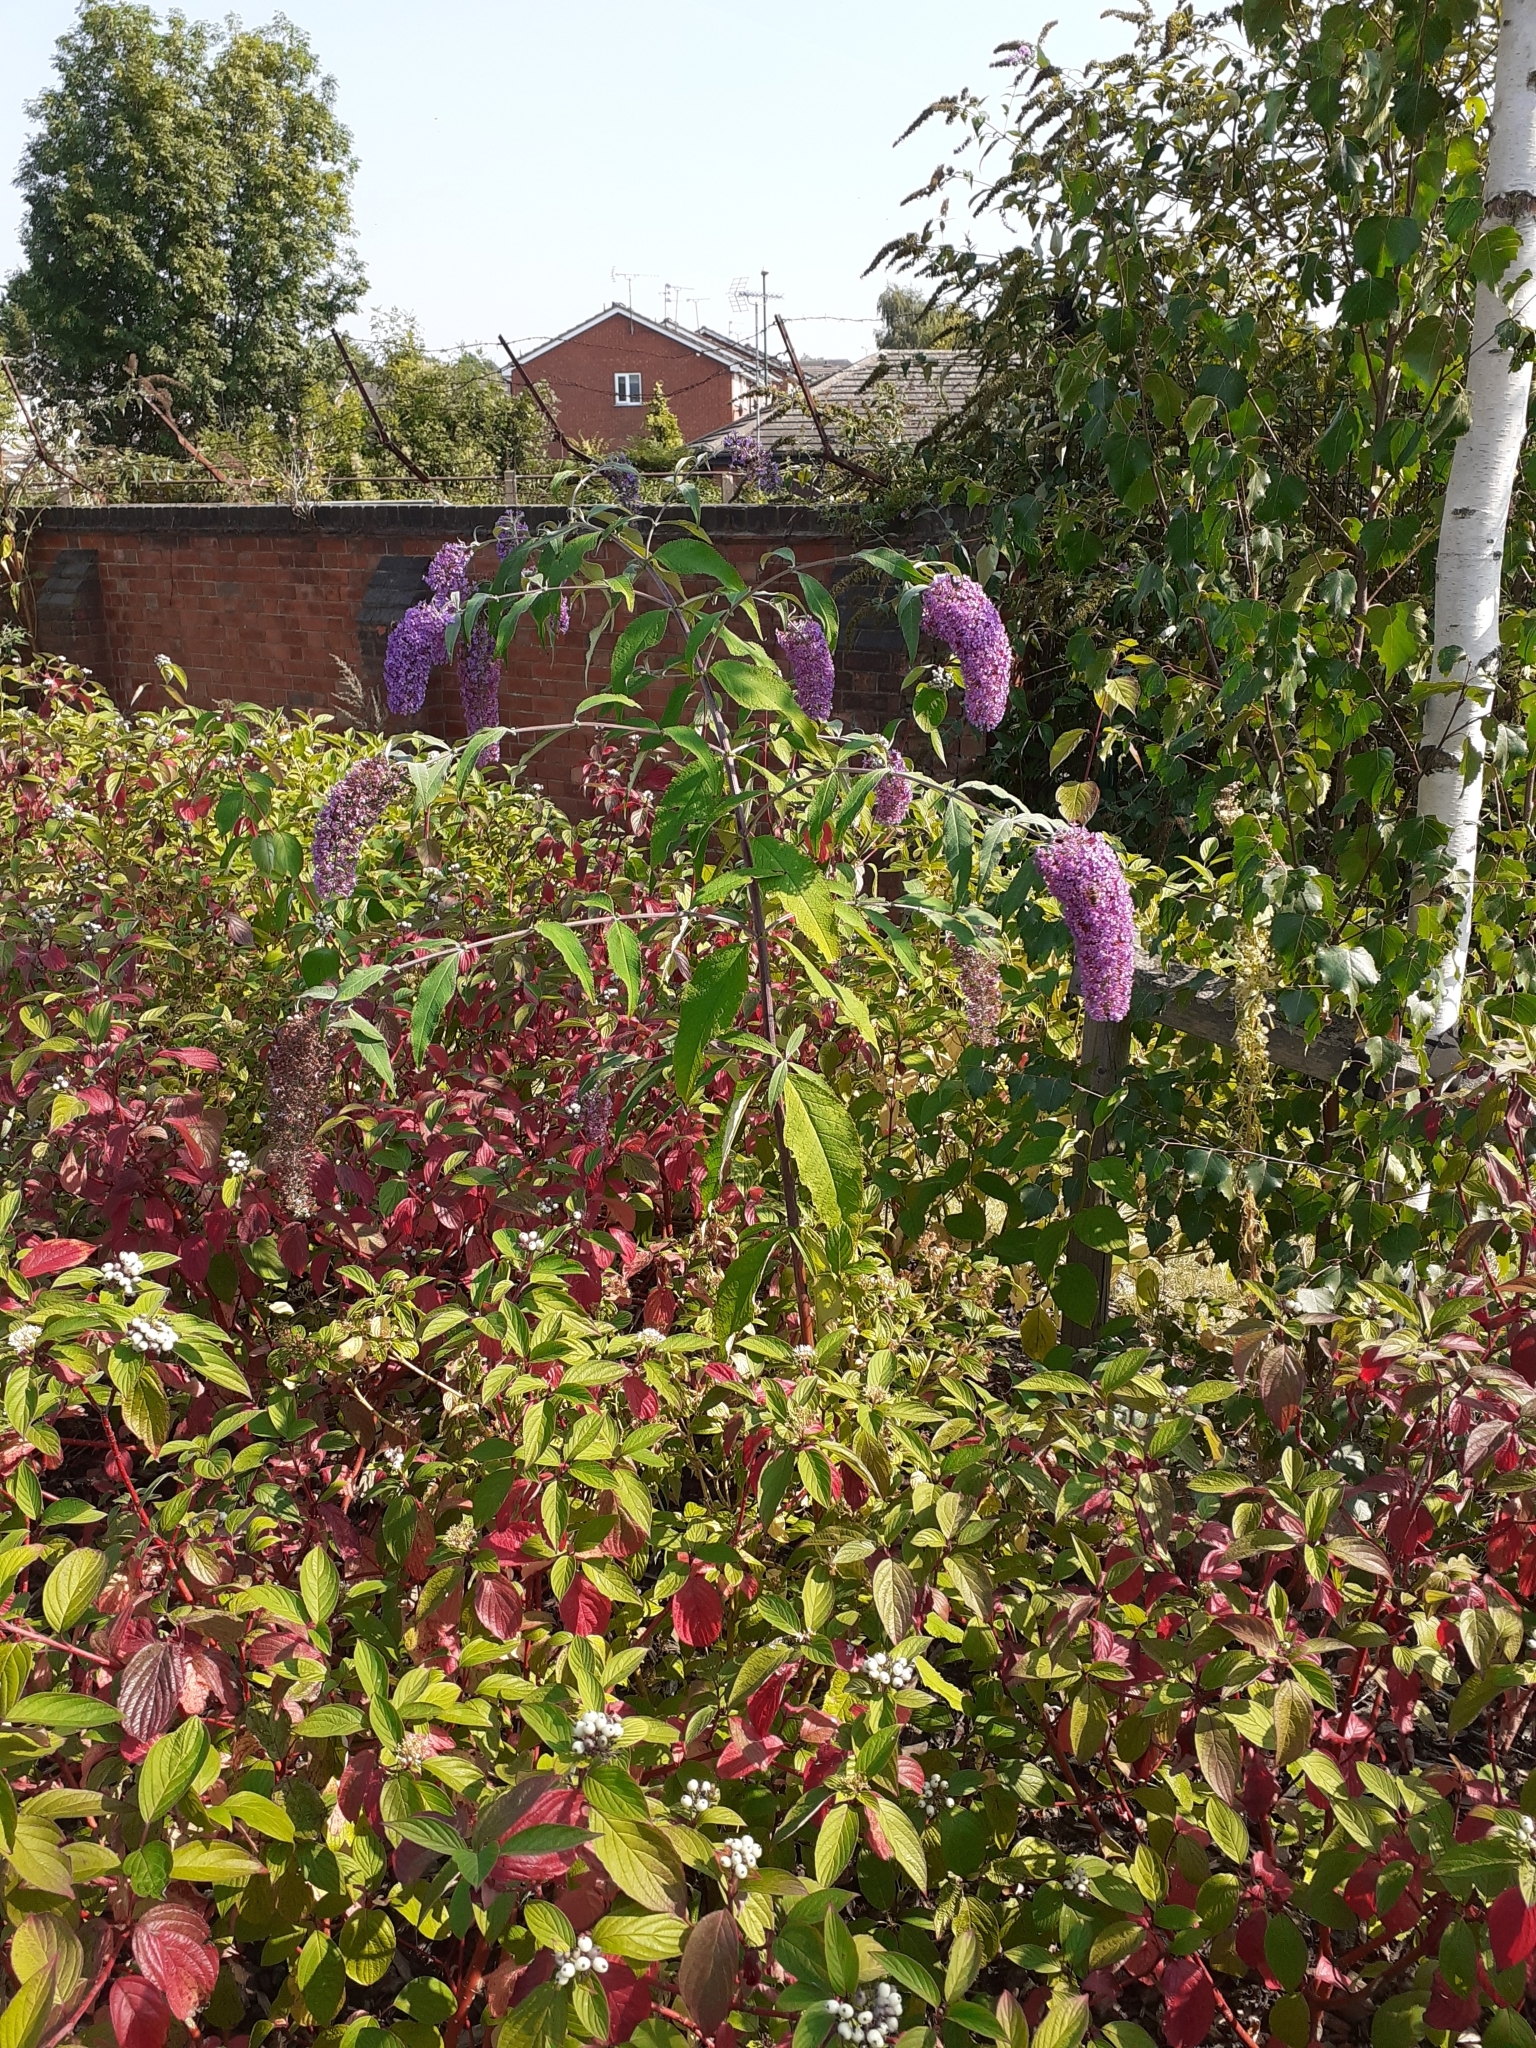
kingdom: Plantae
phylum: Tracheophyta
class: Magnoliopsida
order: Lamiales
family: Scrophulariaceae
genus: Buddleja
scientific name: Buddleja davidii
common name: Butterfly-bush
